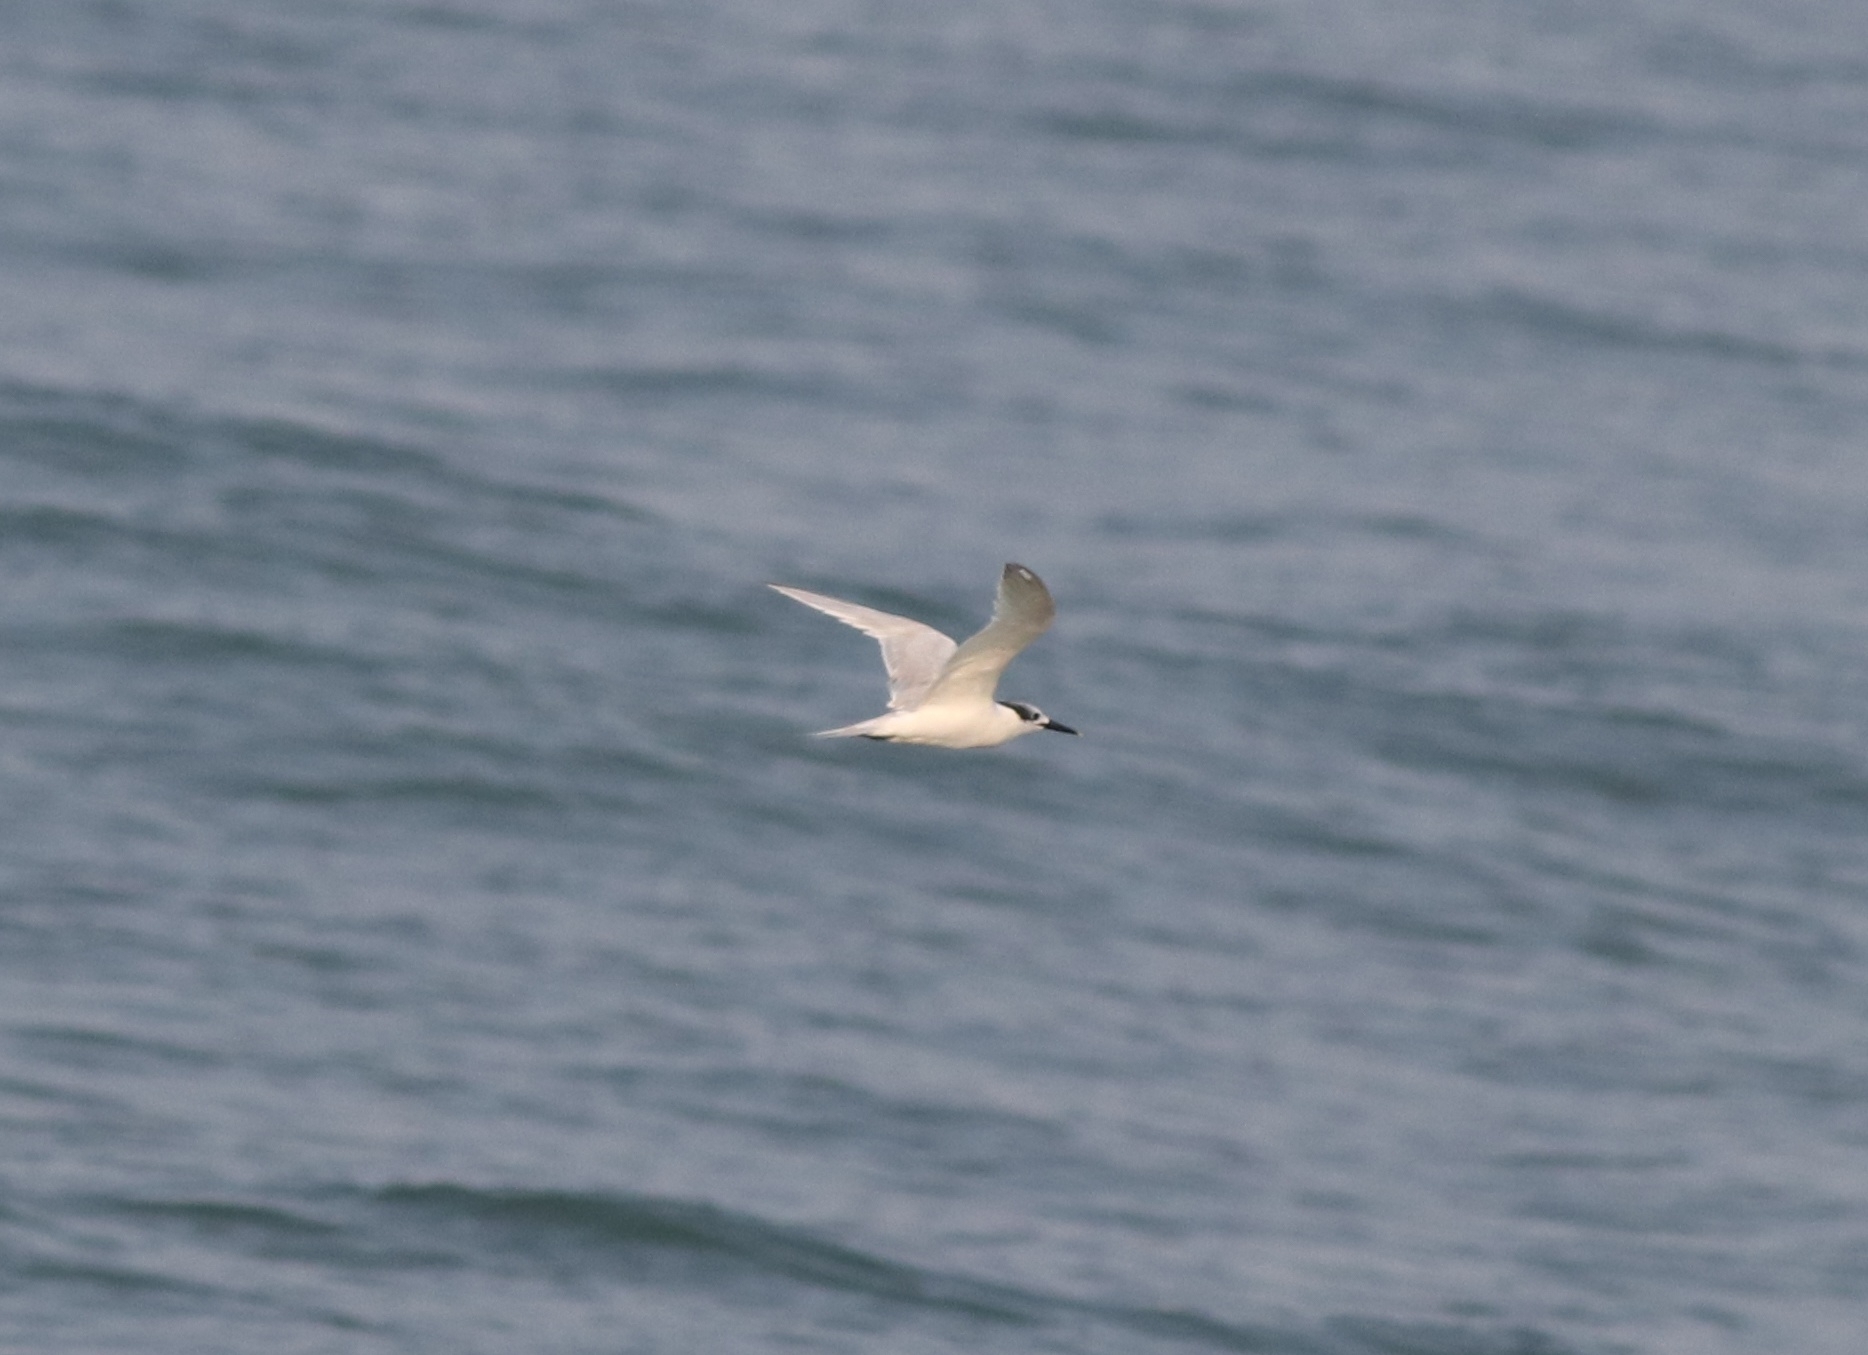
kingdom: Animalia
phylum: Chordata
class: Aves
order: Charadriiformes
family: Laridae
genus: Thalasseus
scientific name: Thalasseus sandvicensis
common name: Sandwich tern
